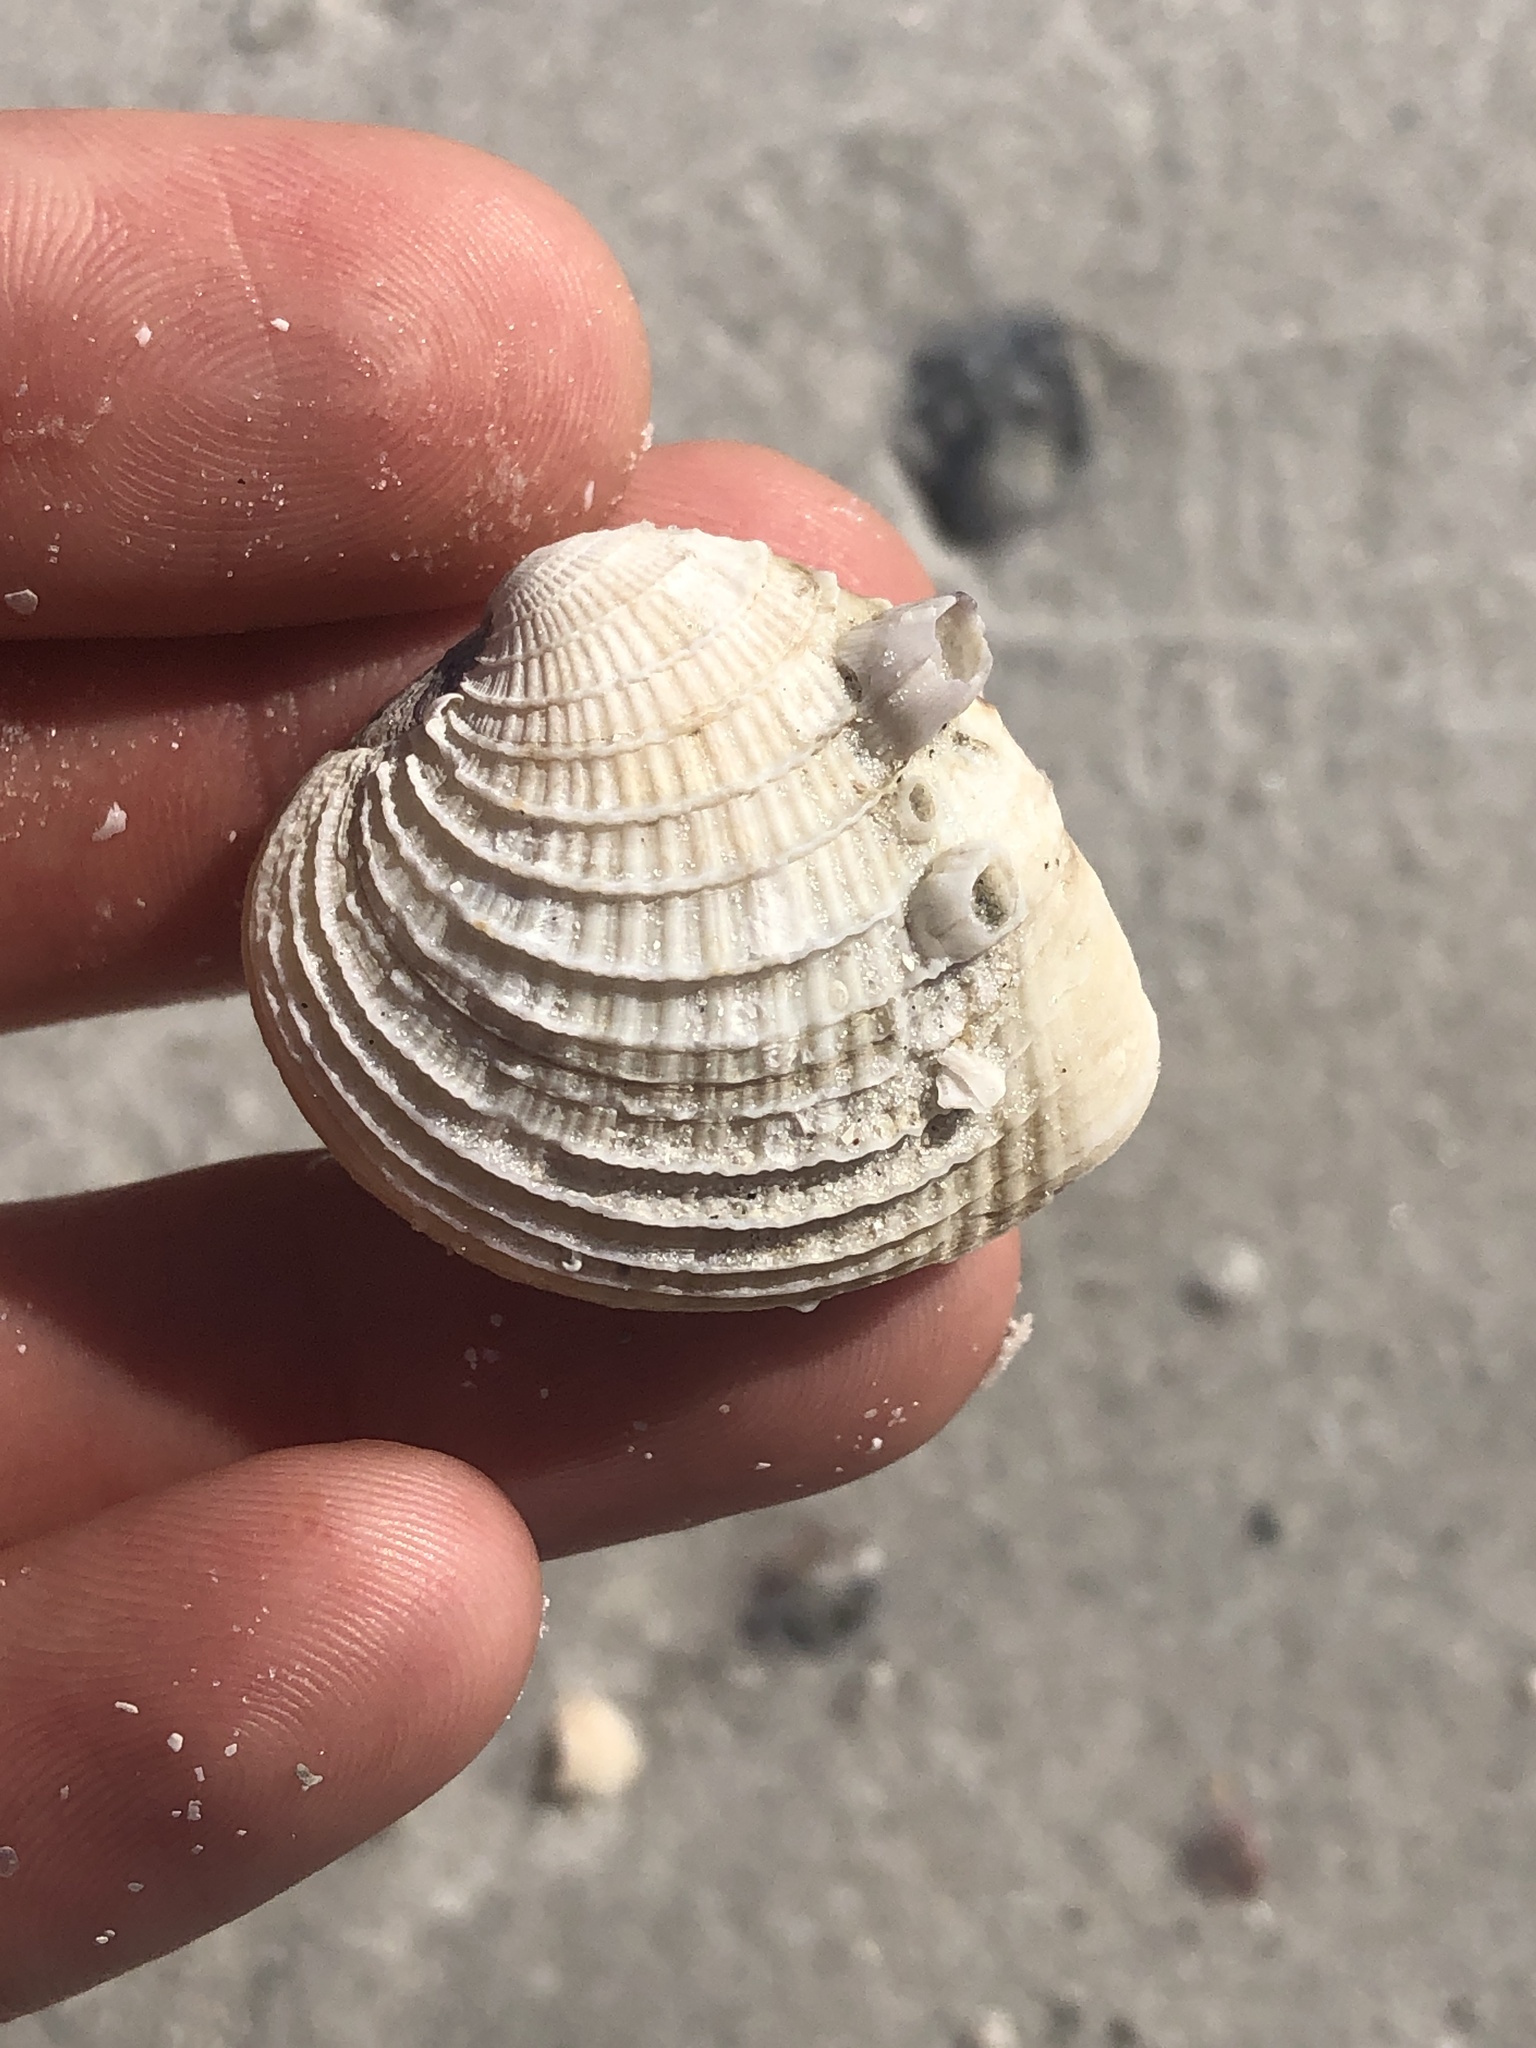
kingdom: Animalia
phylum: Mollusca
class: Bivalvia
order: Venerida
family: Veneridae
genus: Chione
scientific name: Chione elevata
